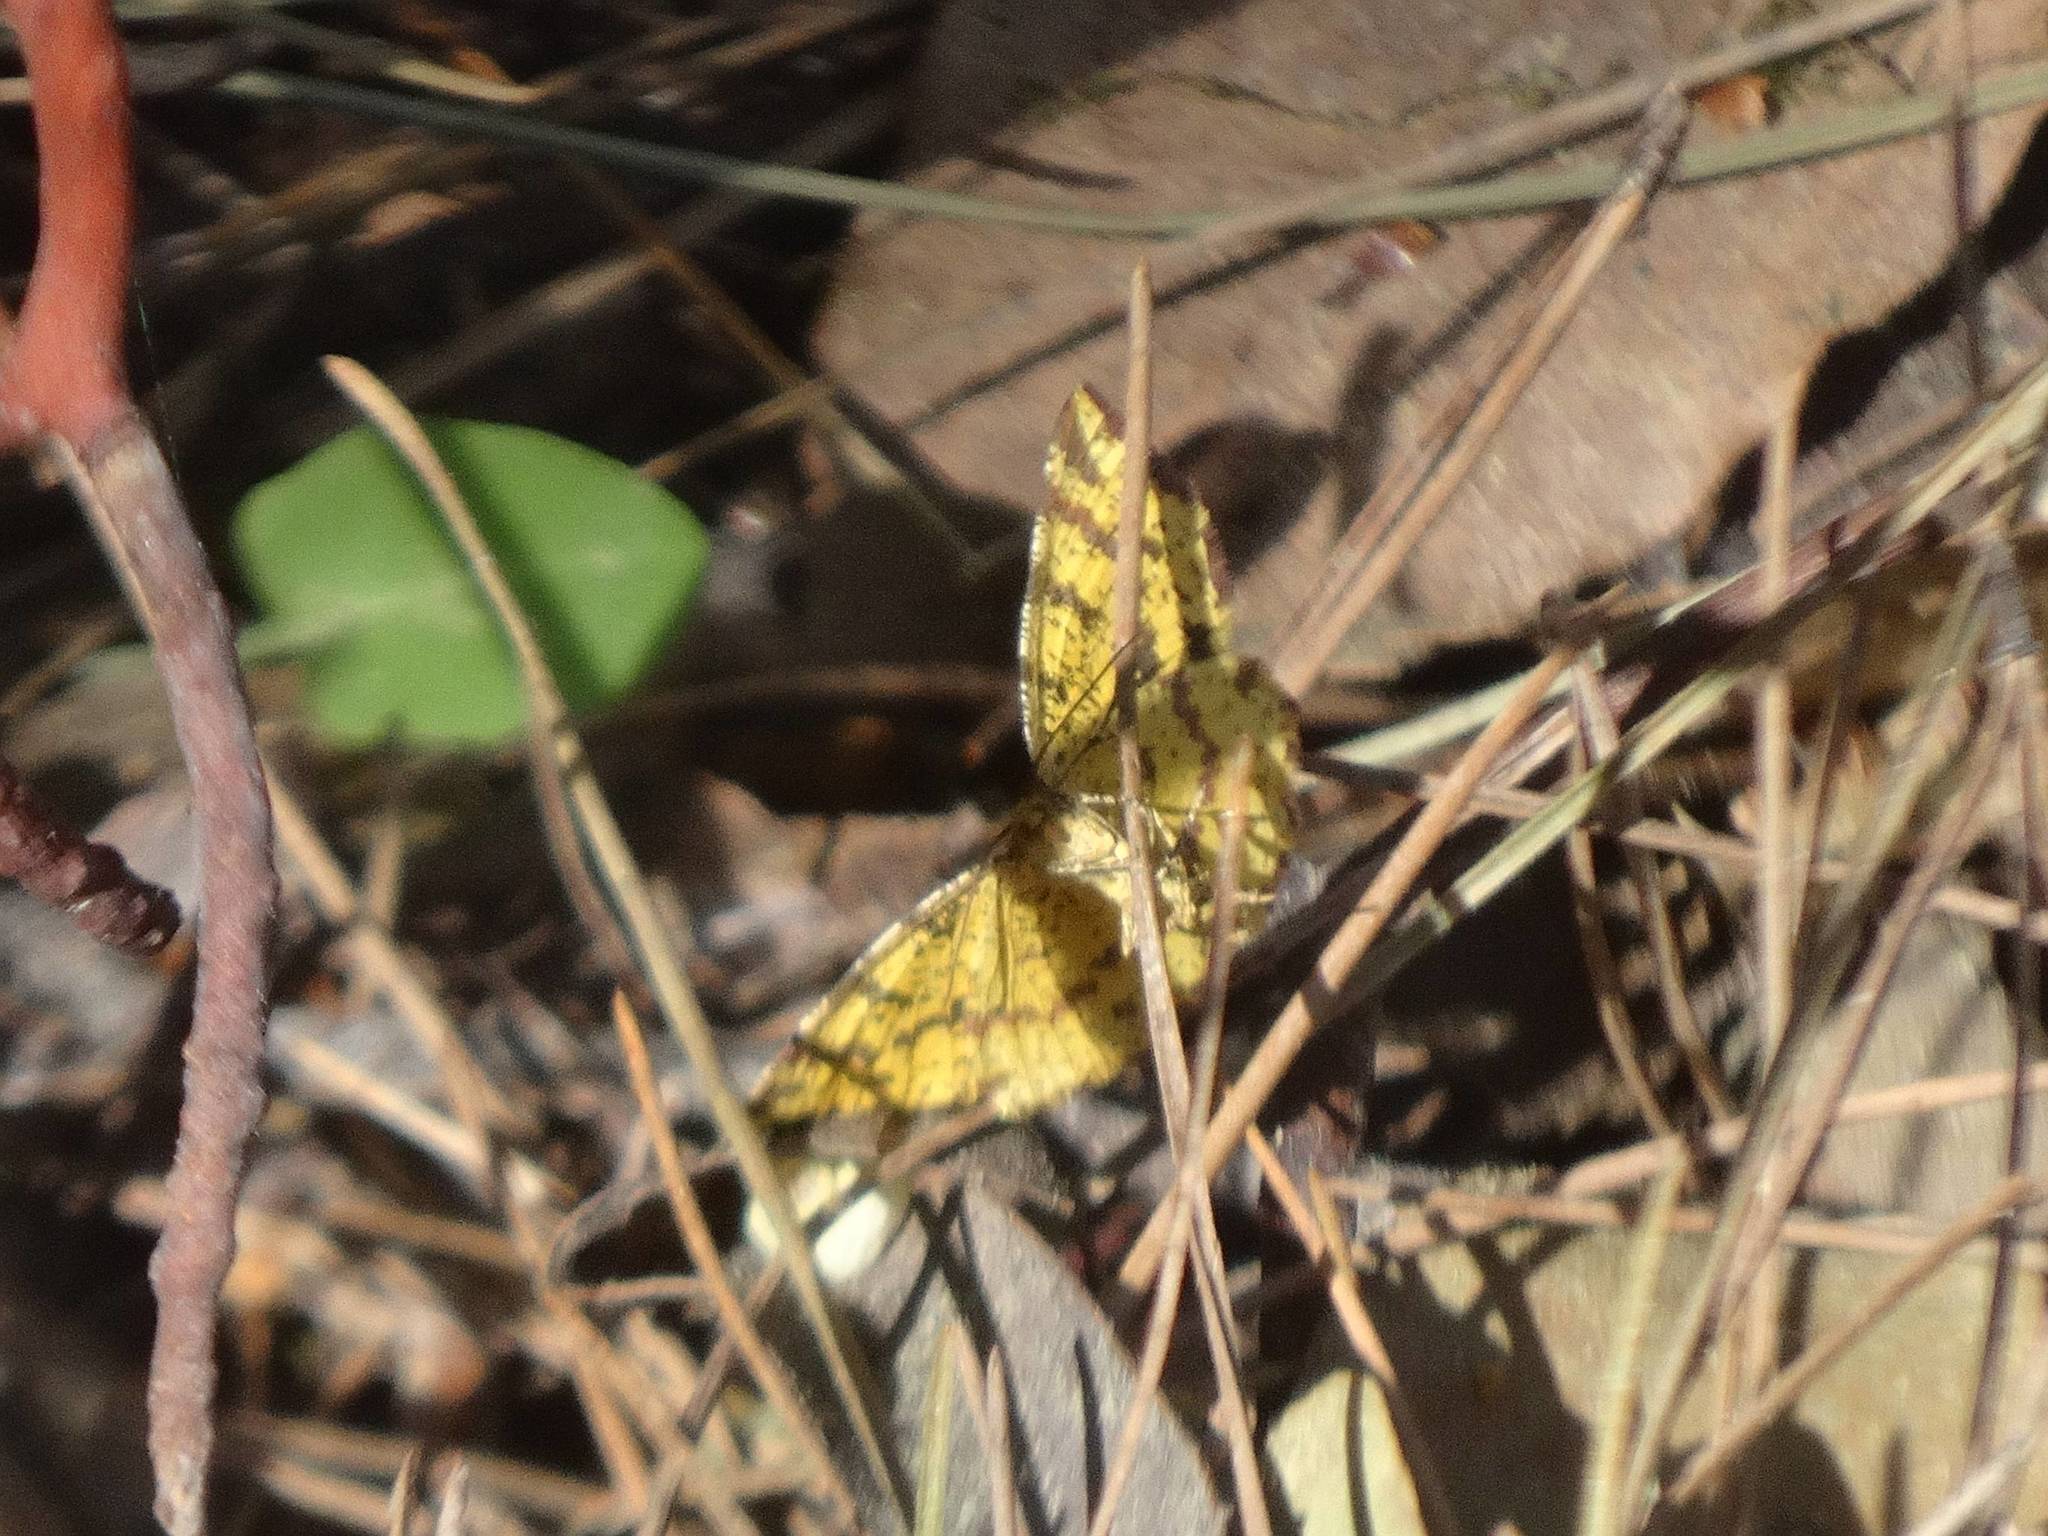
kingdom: Animalia
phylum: Arthropoda
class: Insecta
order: Lepidoptera
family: Geometridae
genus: Pseudopanthera
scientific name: Pseudopanthera syriacata
